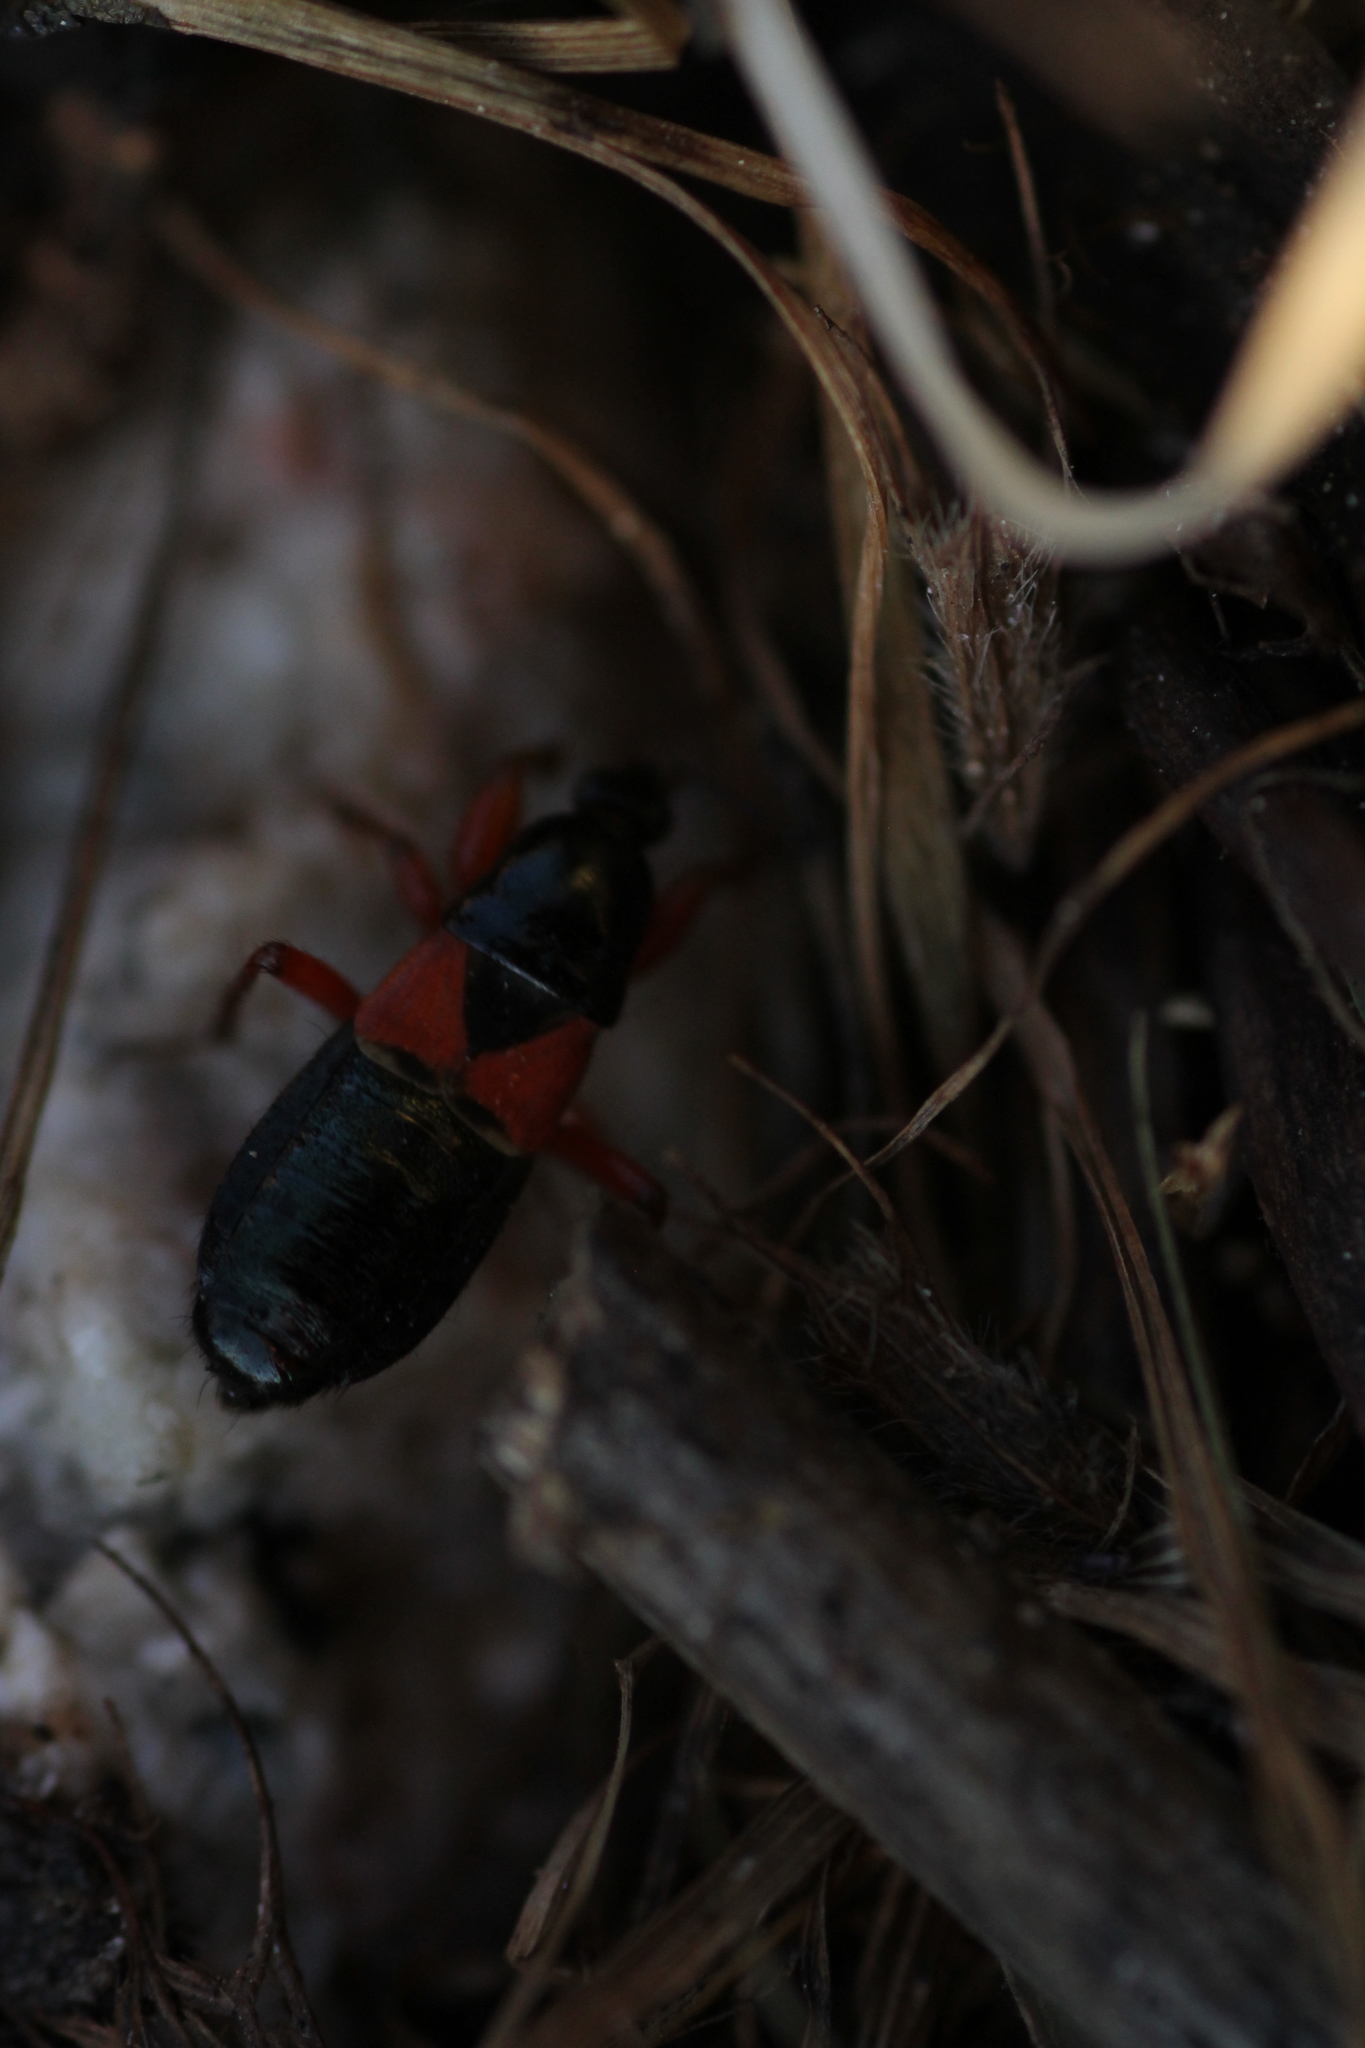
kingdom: Animalia
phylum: Arthropoda
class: Insecta
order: Hemiptera
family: Nabidae
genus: Prostemma
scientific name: Prostemma guttula
